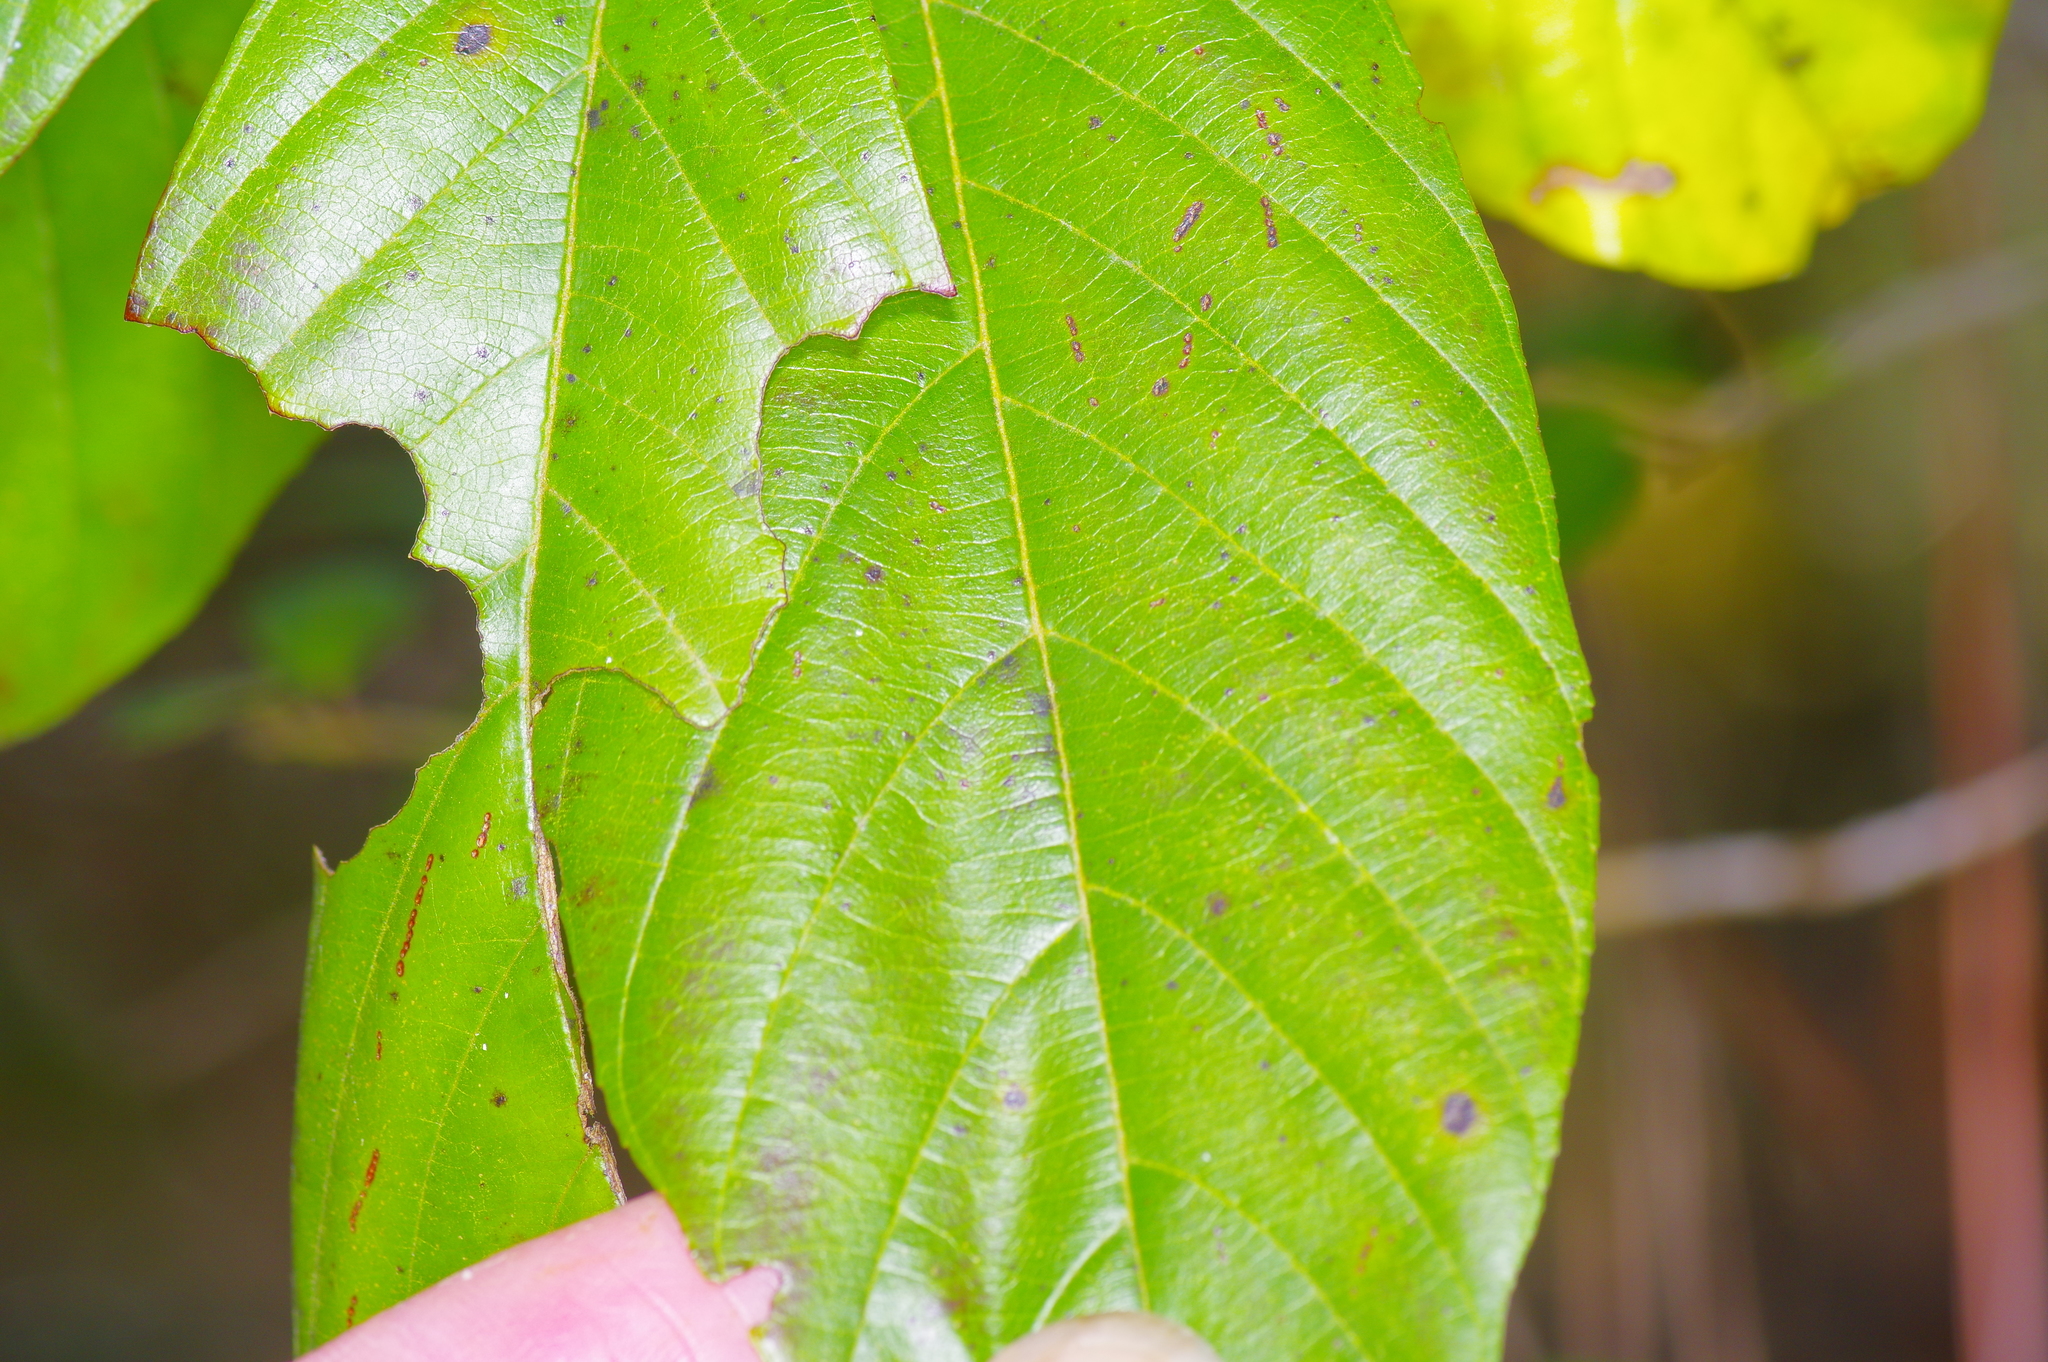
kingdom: Plantae
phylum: Tracheophyta
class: Magnoliopsida
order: Rosales
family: Rhamnaceae
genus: Frangula
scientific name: Frangula caroliniana
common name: Carolina buckthorn
